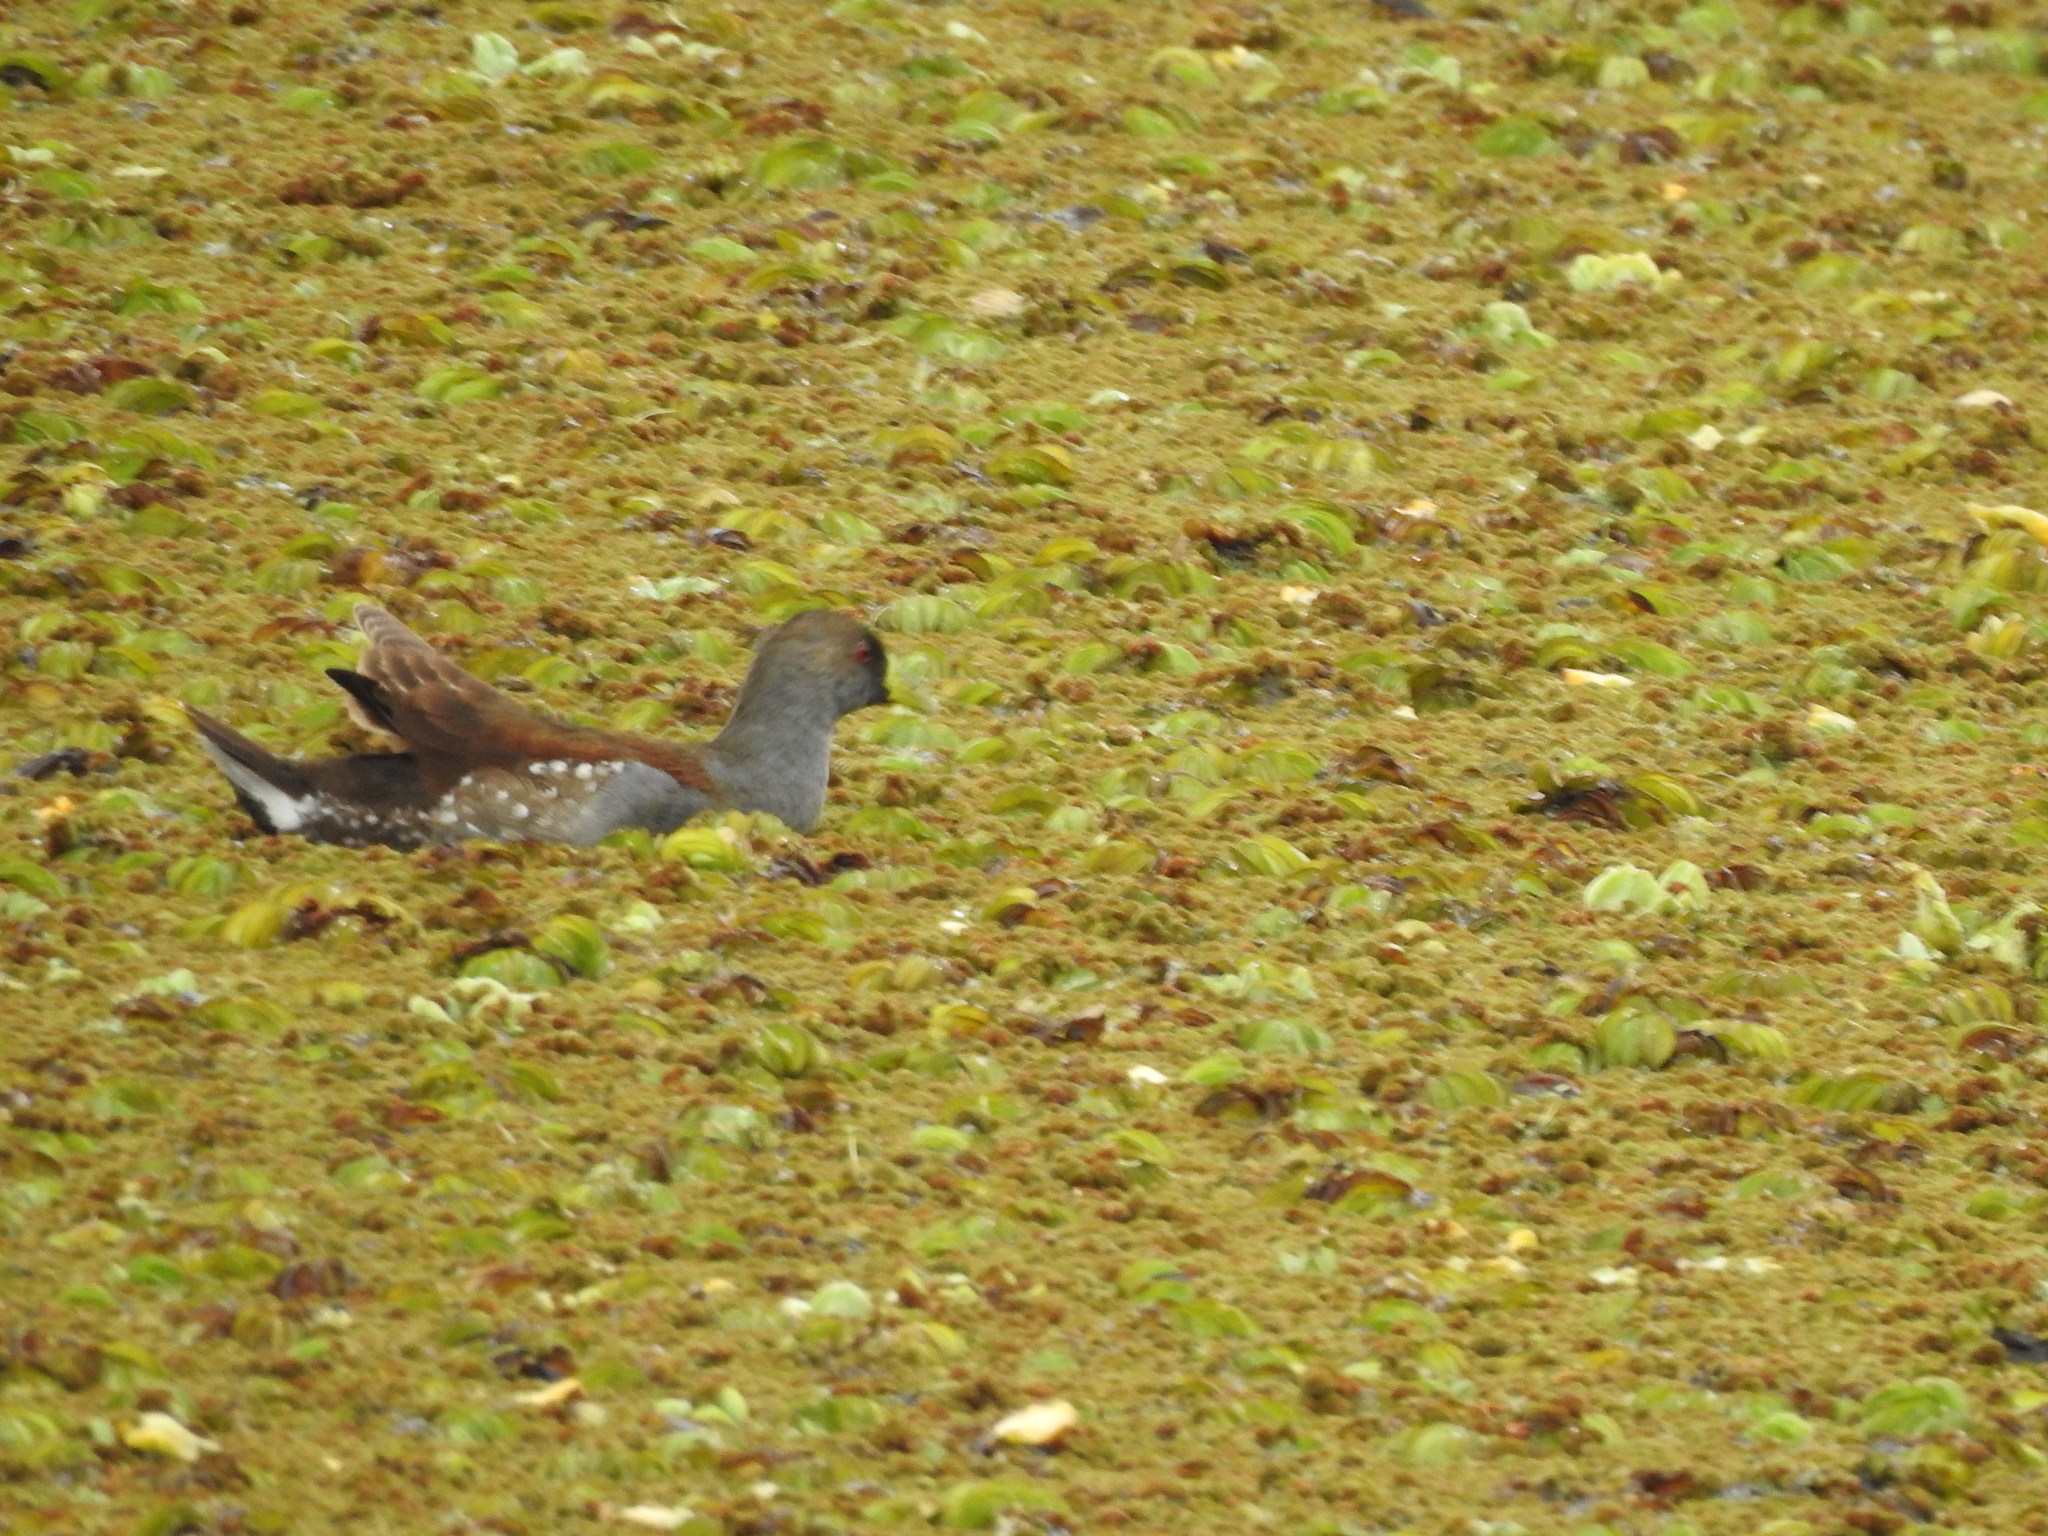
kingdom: Animalia
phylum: Chordata
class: Aves
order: Gruiformes
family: Rallidae
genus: Gallinula
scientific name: Gallinula melanops
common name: Spot-flanked gallinule
